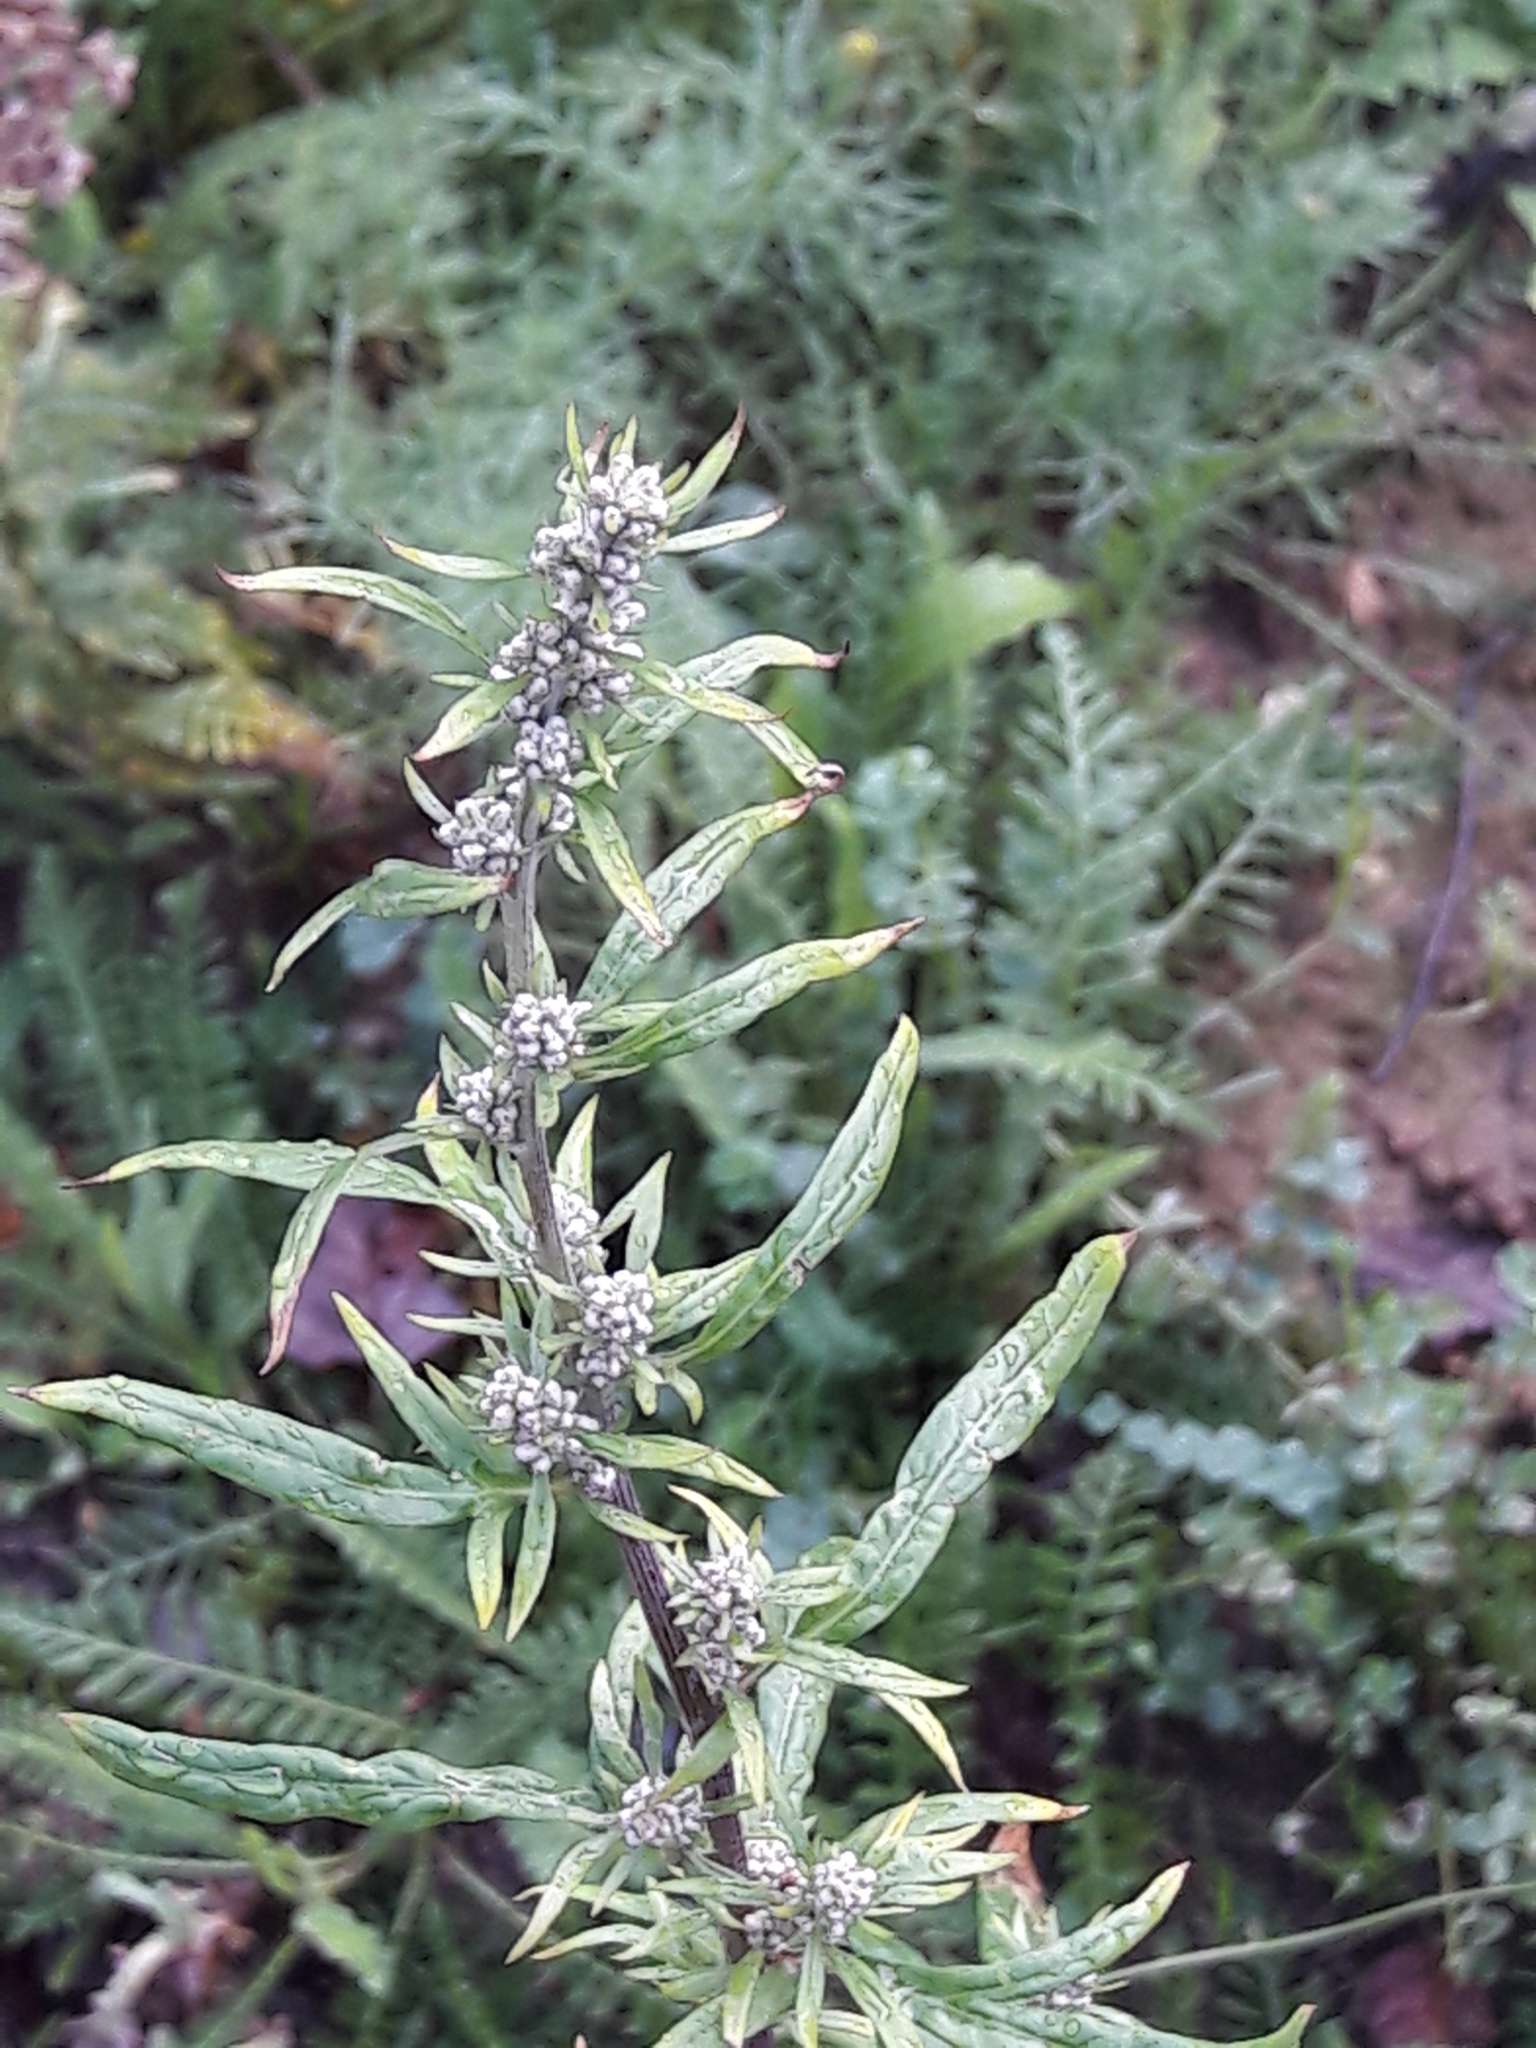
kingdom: Plantae
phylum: Tracheophyta
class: Magnoliopsida
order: Asterales
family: Asteraceae
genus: Artemisia
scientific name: Artemisia vulgaris
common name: Mugwort
